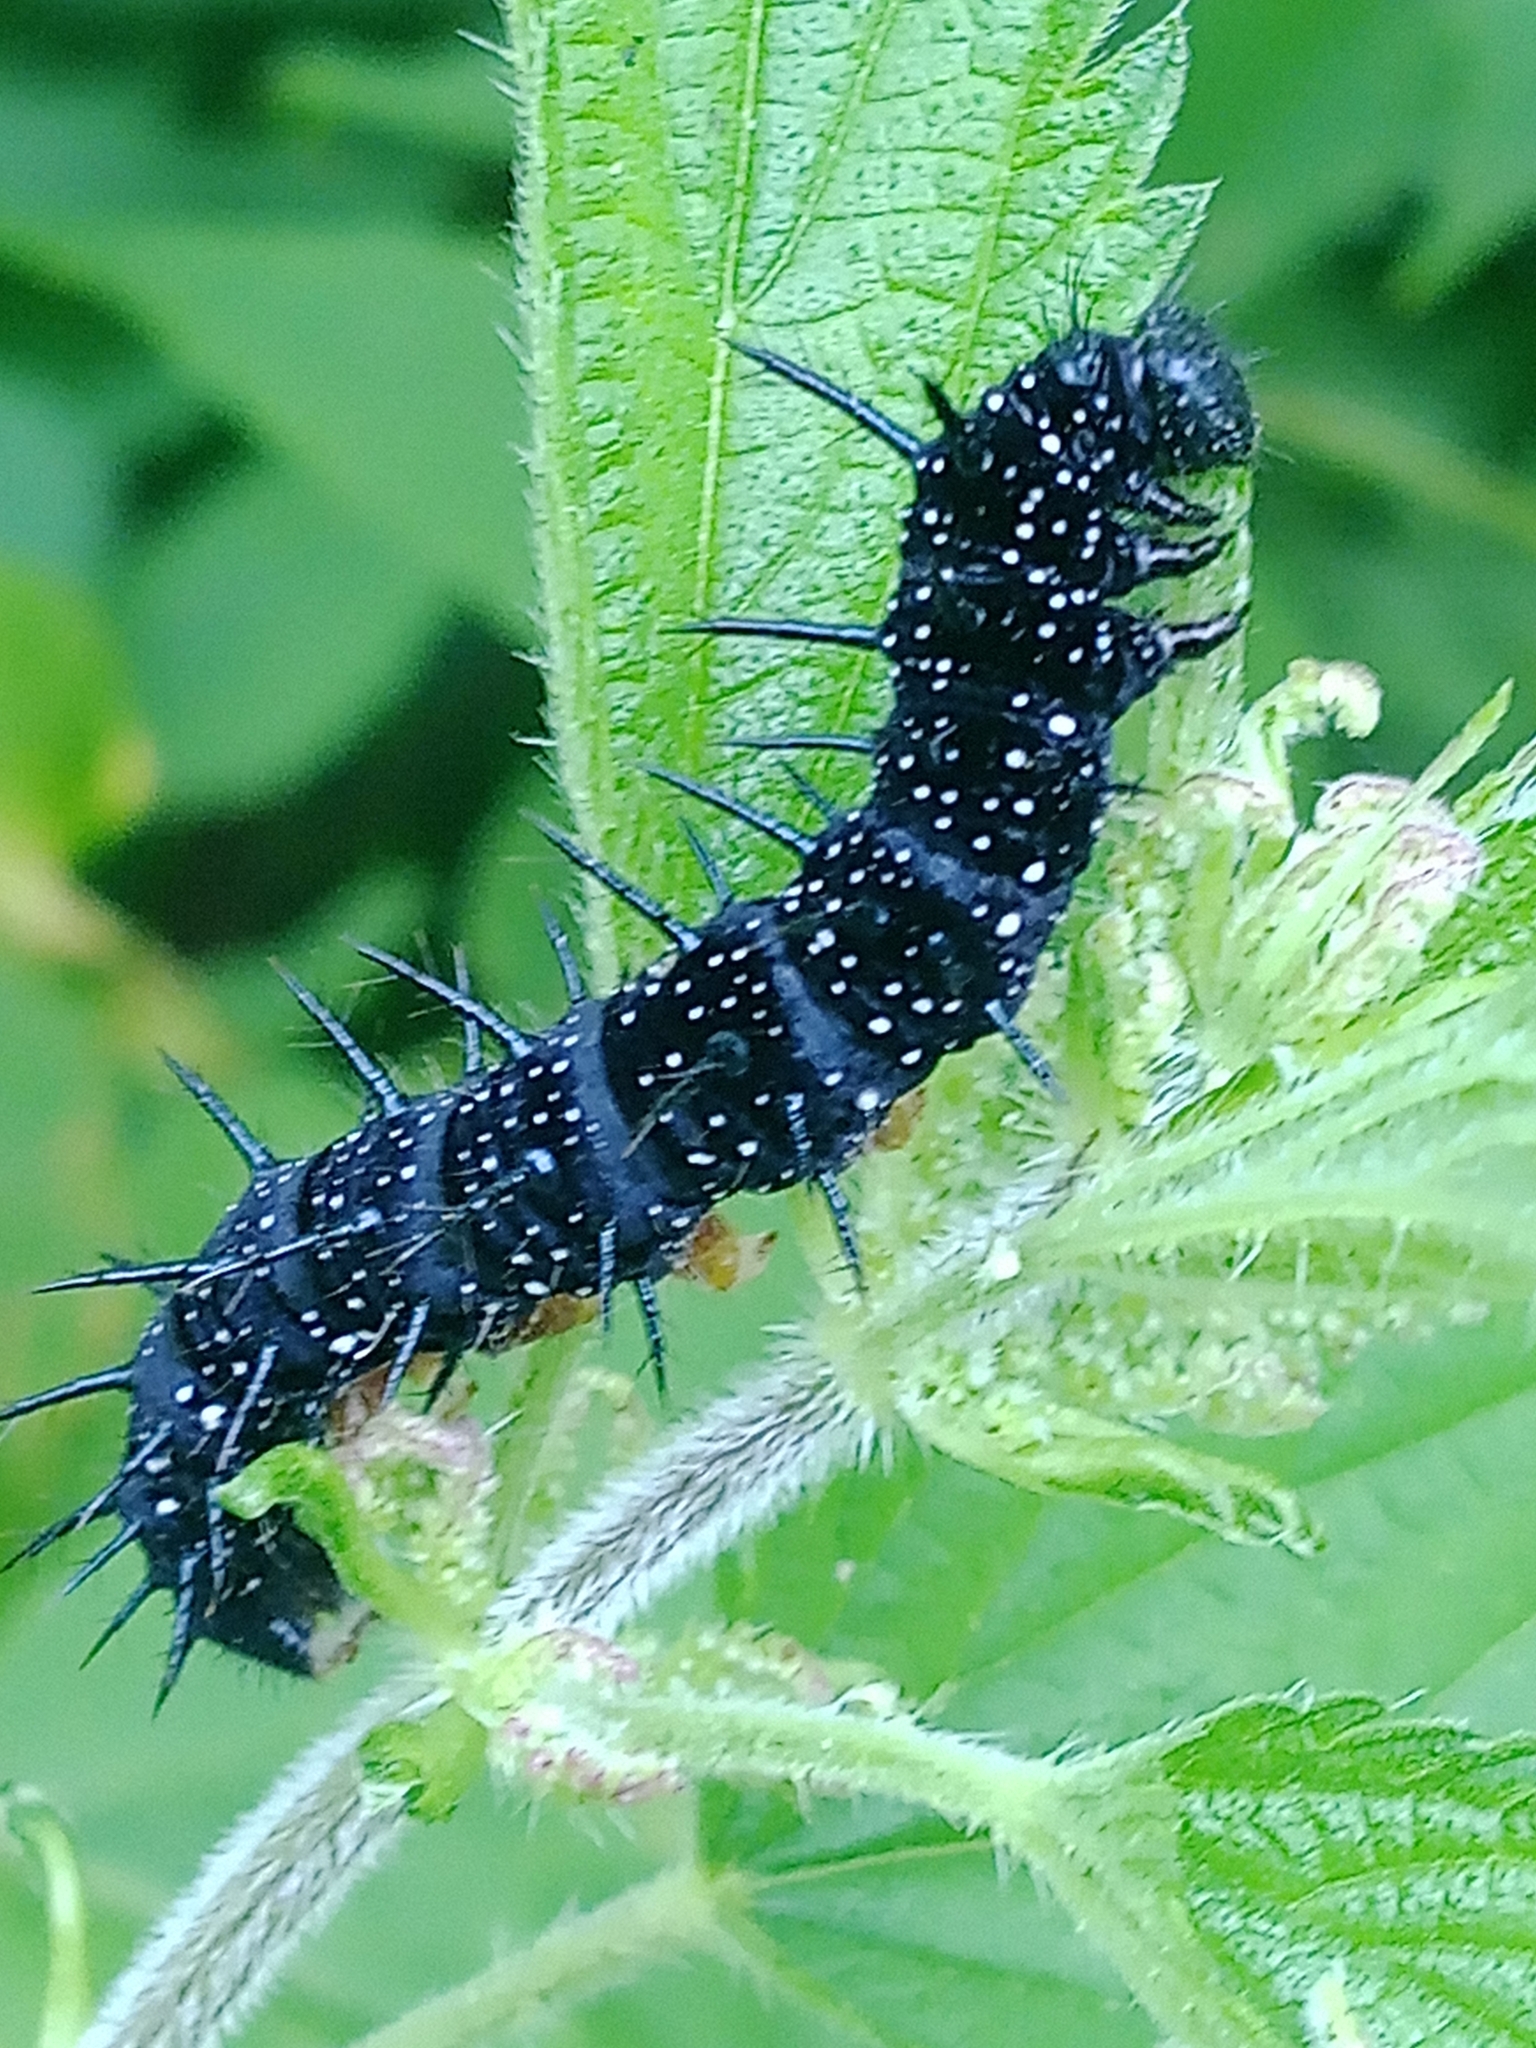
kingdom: Animalia
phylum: Arthropoda
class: Insecta
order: Lepidoptera
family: Nymphalidae
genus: Aglais
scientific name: Aglais io
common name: Peacock
